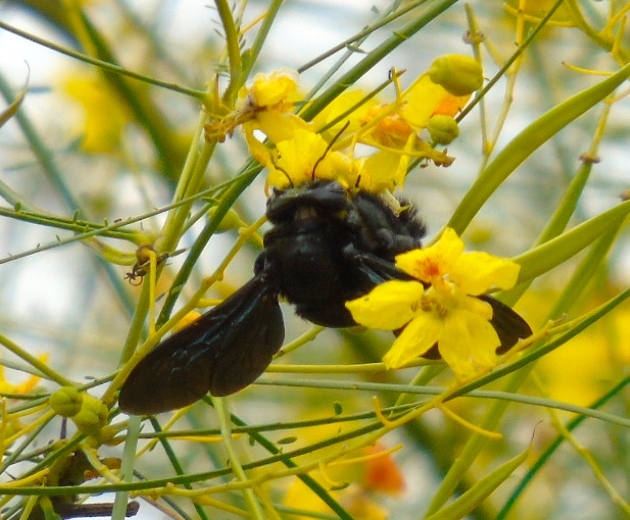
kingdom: Animalia
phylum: Arthropoda
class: Insecta
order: Hymenoptera
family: Apidae
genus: Xylocopa
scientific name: Xylocopa fimbriata
